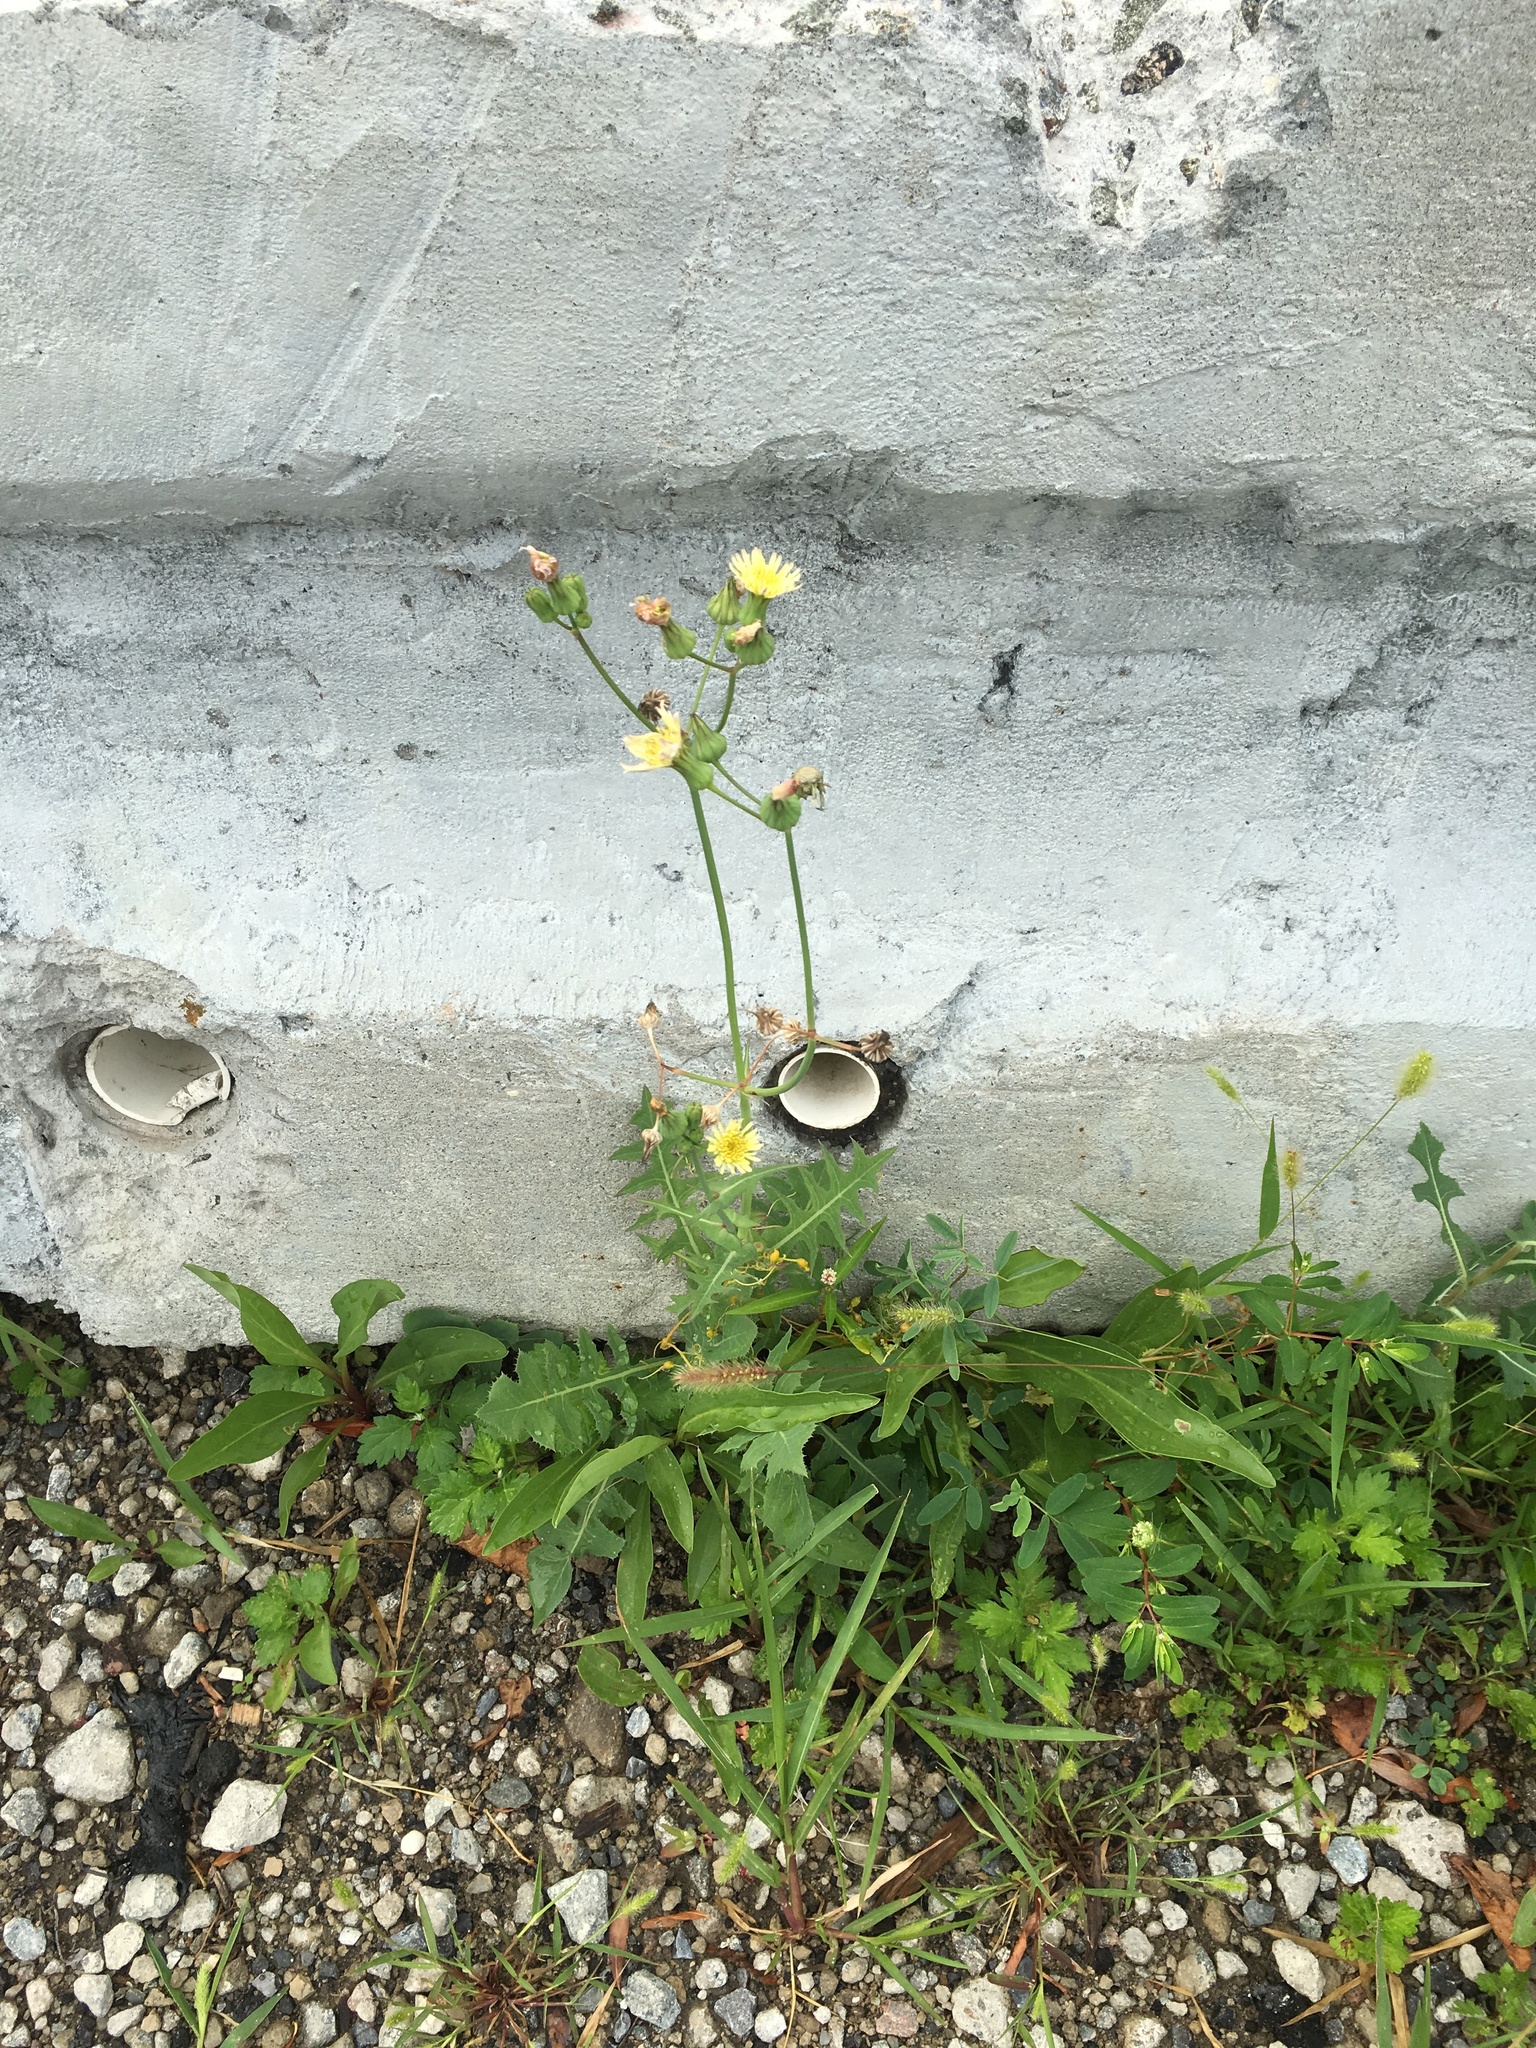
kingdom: Plantae
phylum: Tracheophyta
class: Magnoliopsida
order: Asterales
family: Asteraceae
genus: Sonchus
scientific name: Sonchus oleraceus
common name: Common sowthistle
